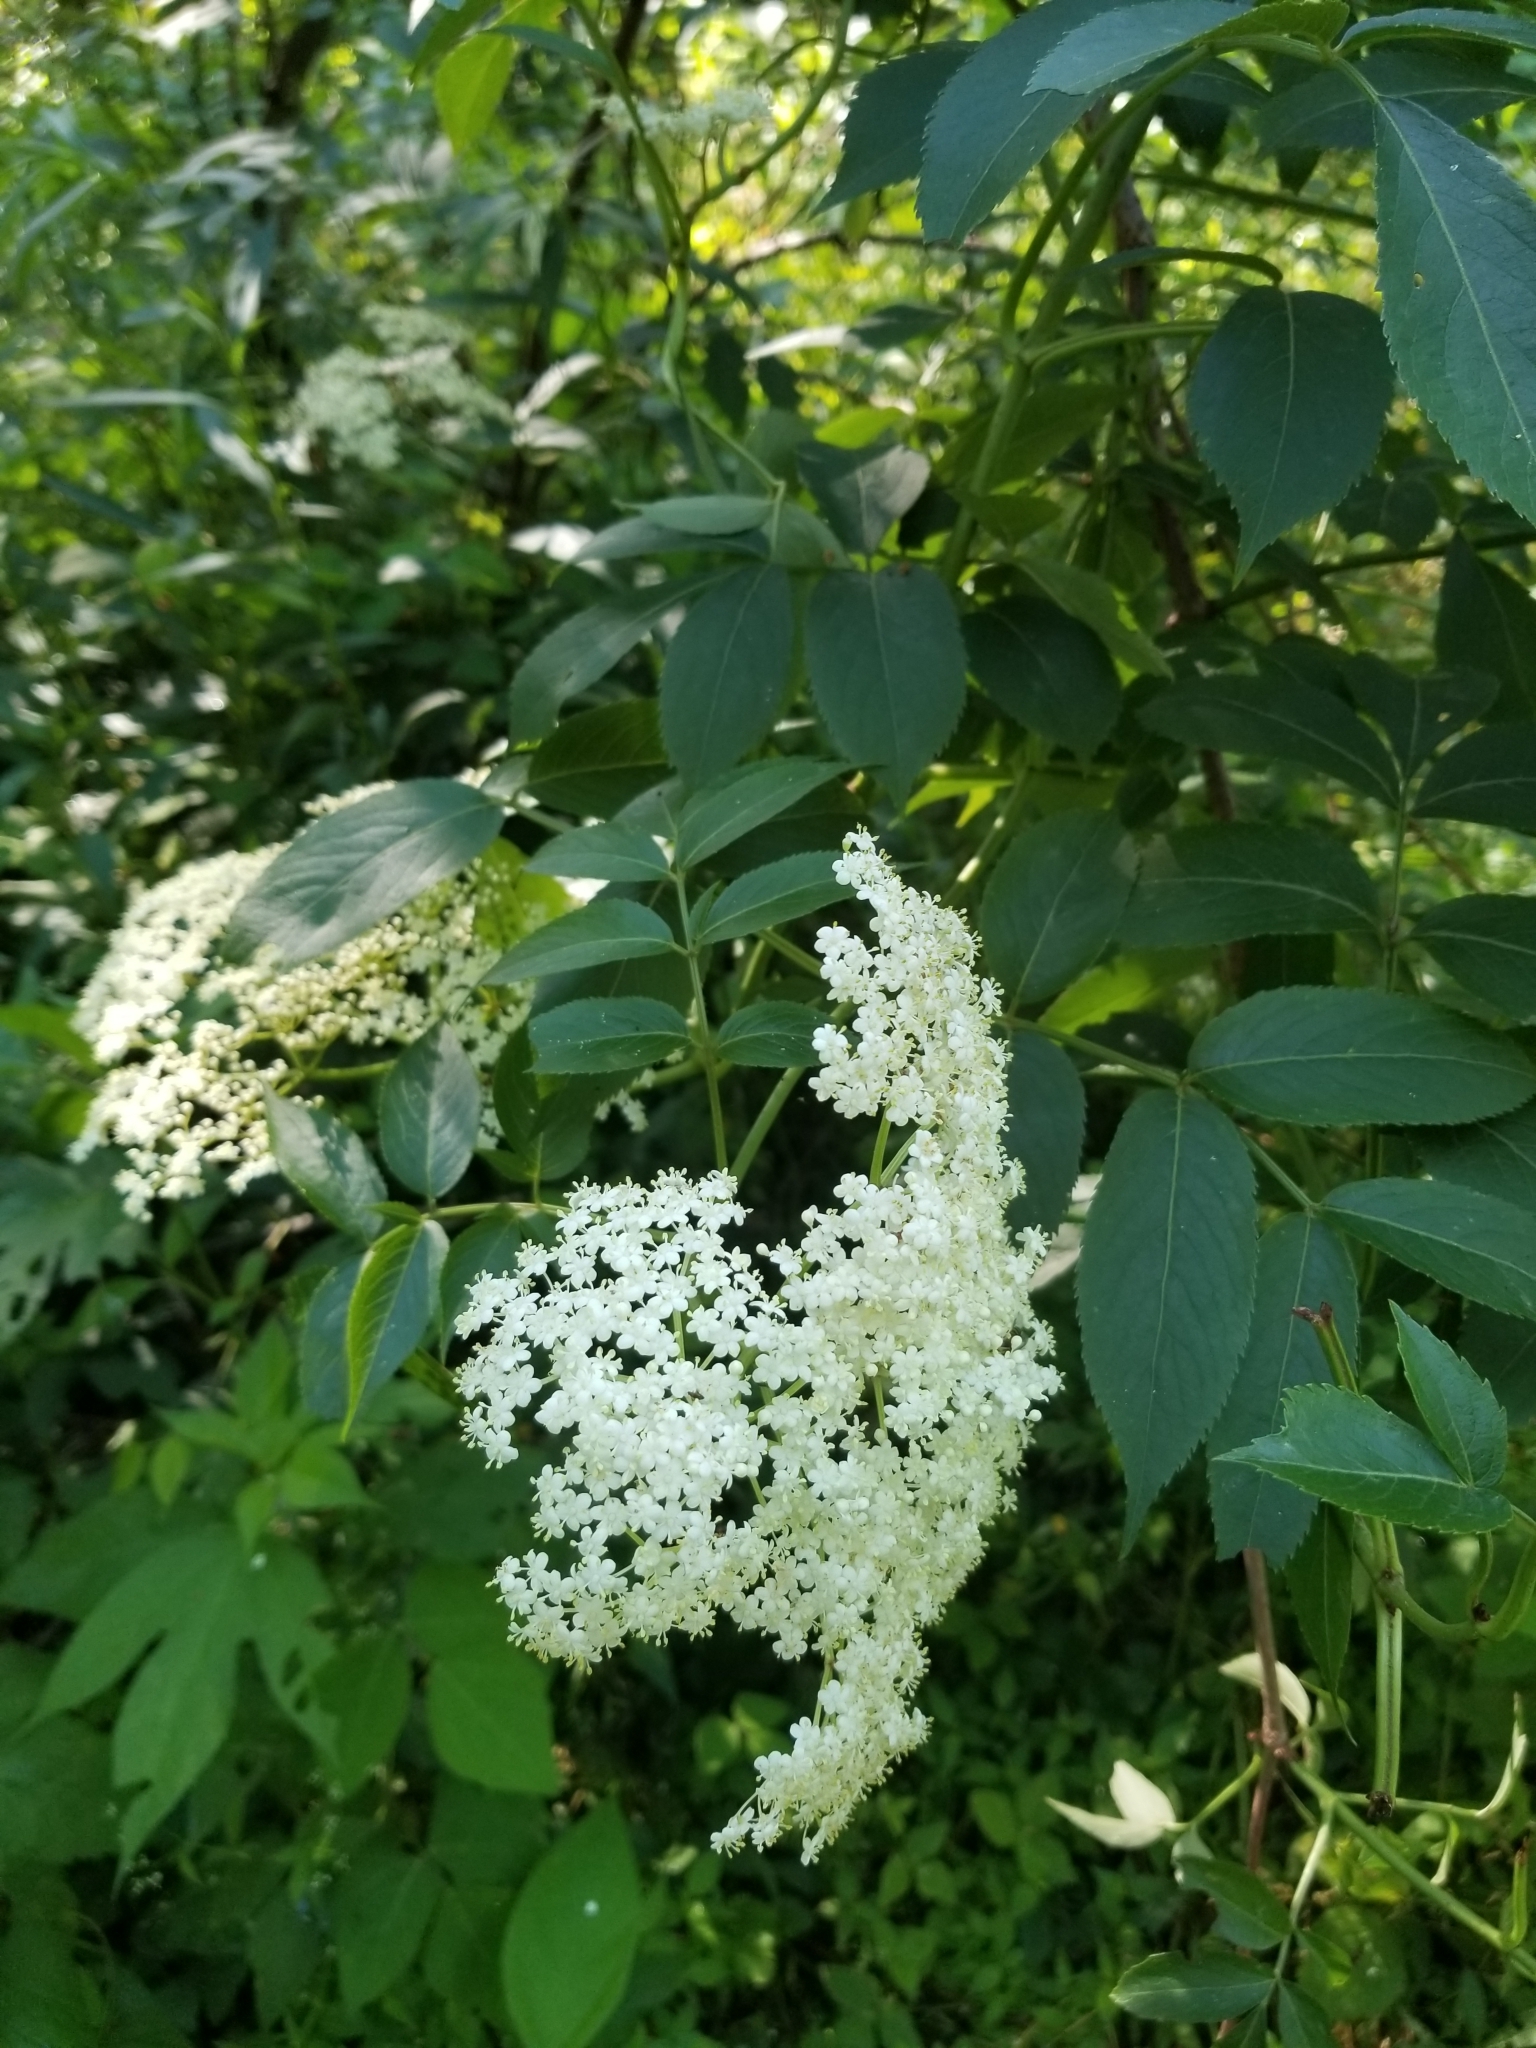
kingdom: Plantae
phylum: Tracheophyta
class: Magnoliopsida
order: Dipsacales
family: Viburnaceae
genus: Sambucus
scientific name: Sambucus canadensis
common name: American elder
